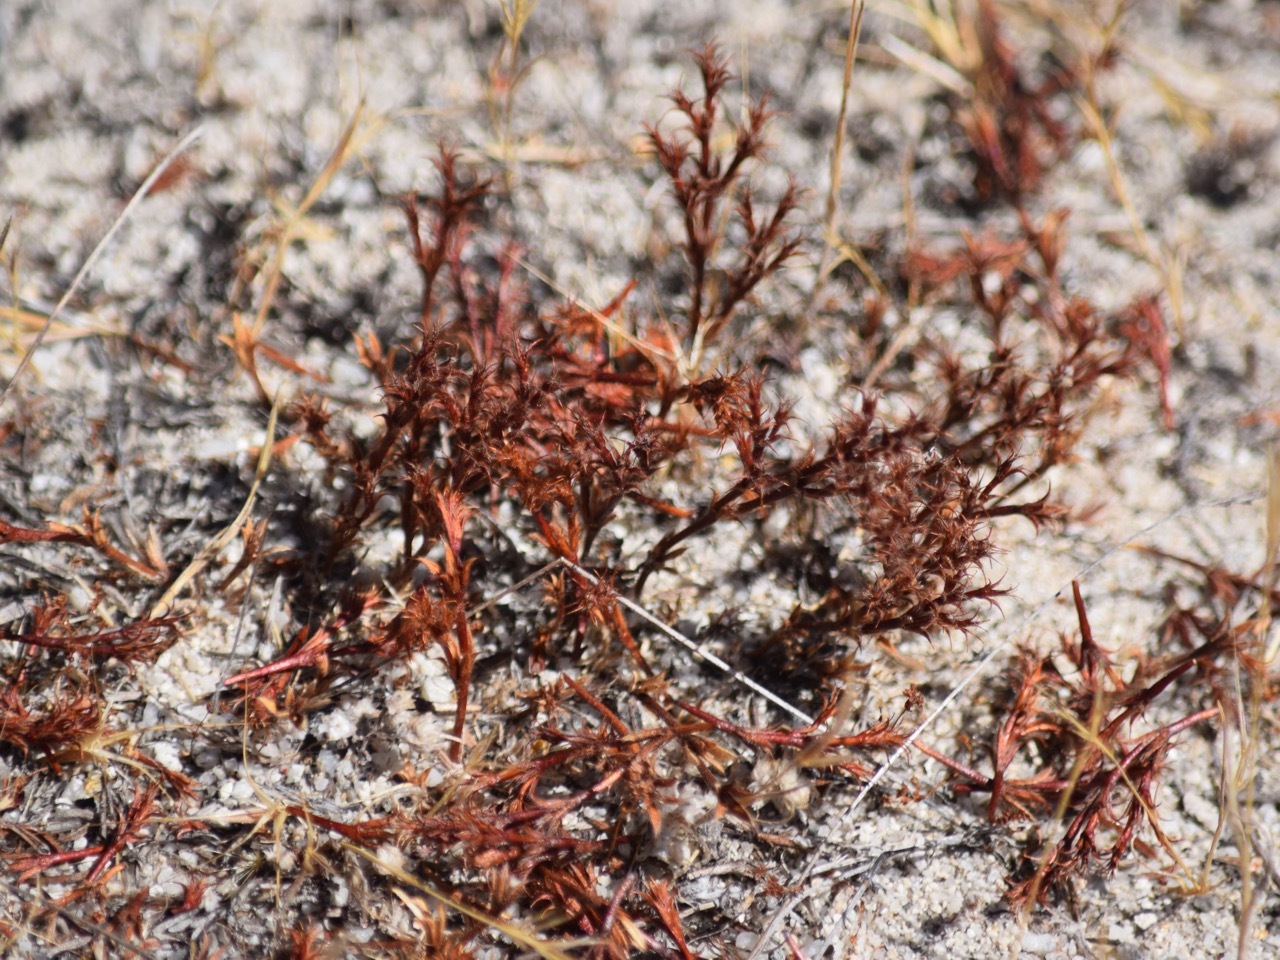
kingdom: Plantae
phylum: Tracheophyta
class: Magnoliopsida
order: Caryophyllales
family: Polygonaceae
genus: Lastarriaea
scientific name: Lastarriaea coriacea
